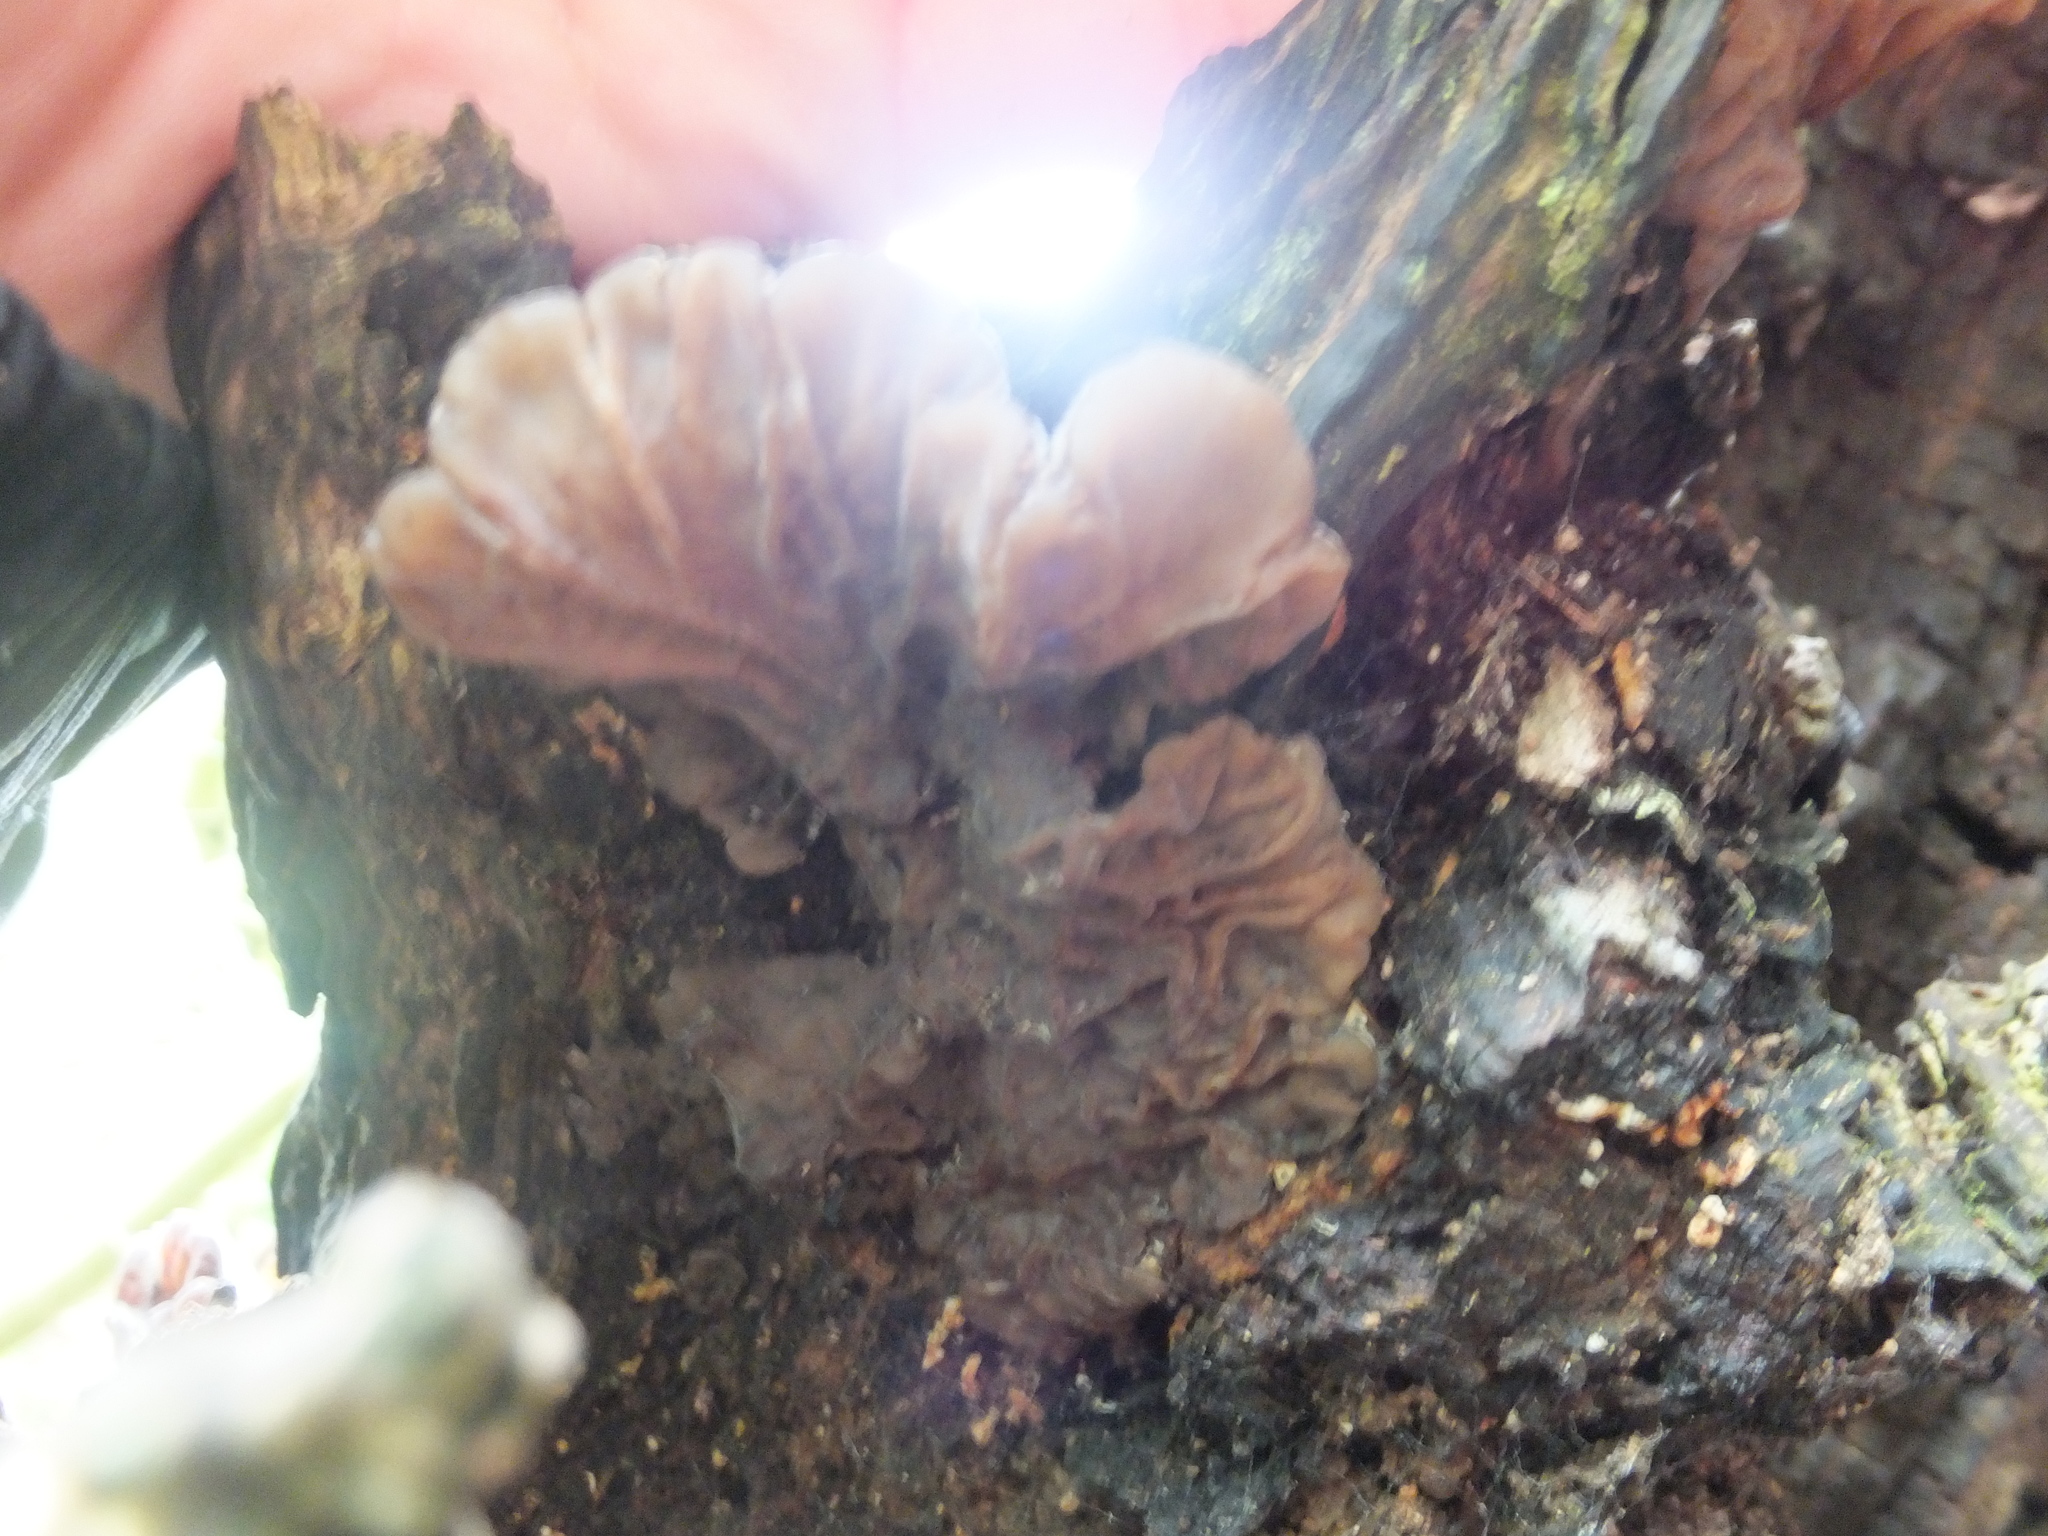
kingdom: Fungi
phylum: Basidiomycota
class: Agaricomycetes
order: Auriculariales
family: Auriculariaceae
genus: Auricularia
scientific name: Auricularia mesenterica
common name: Tripe fungus
